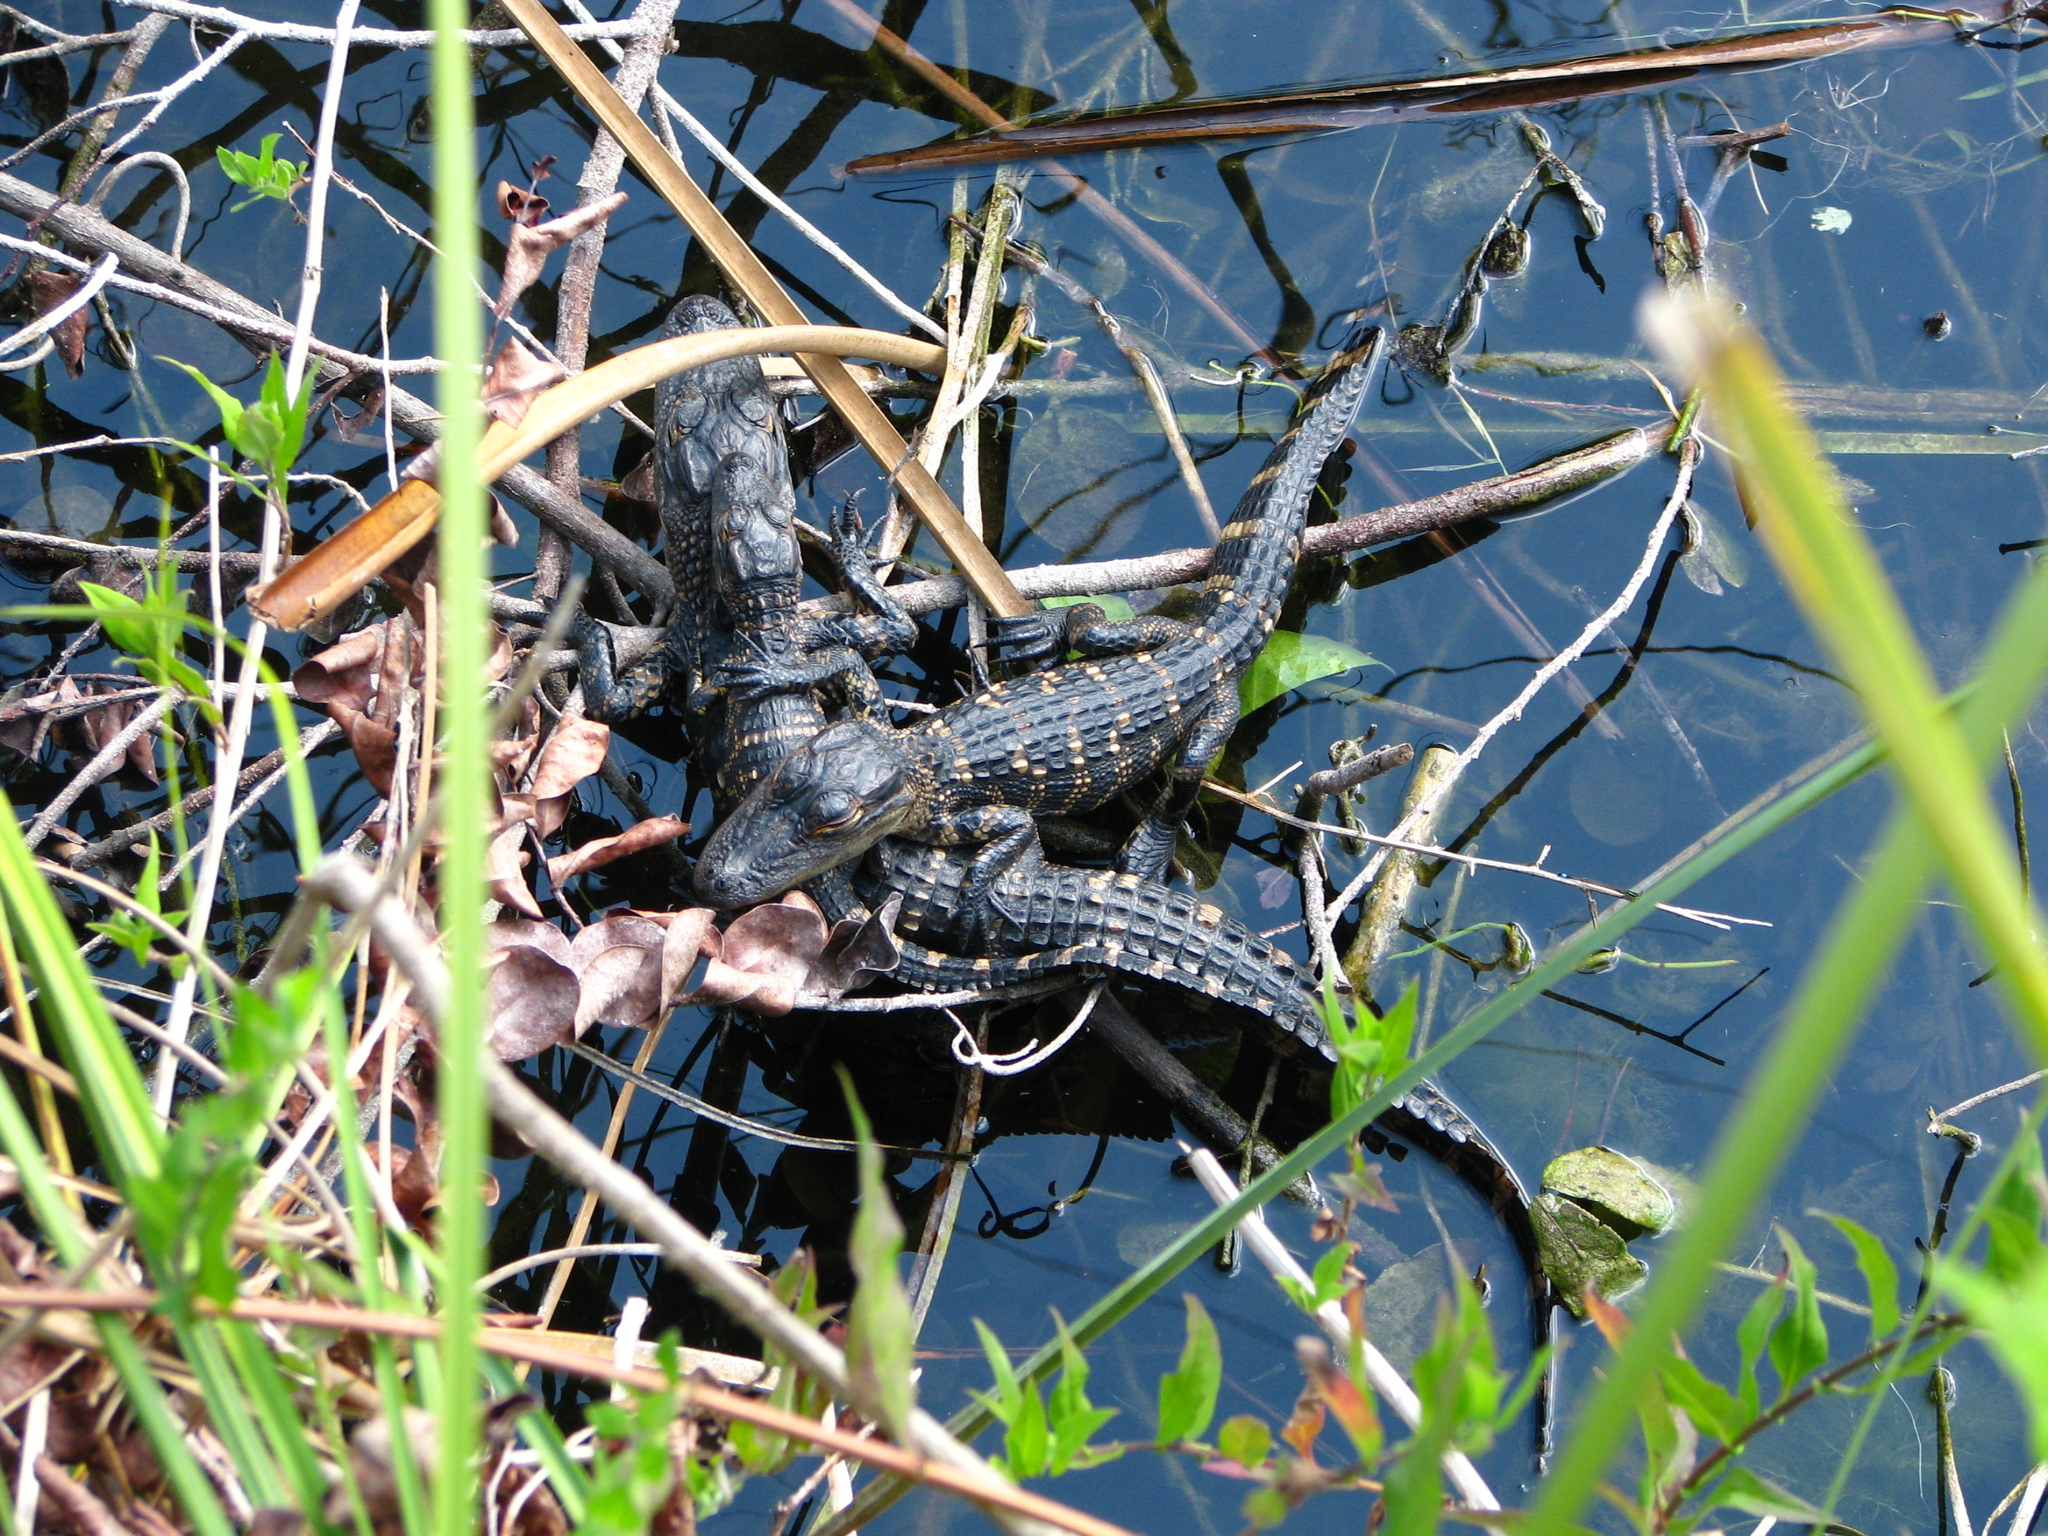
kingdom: Animalia
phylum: Chordata
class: Crocodylia
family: Alligatoridae
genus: Alligator
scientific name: Alligator mississippiensis
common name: American alligator
